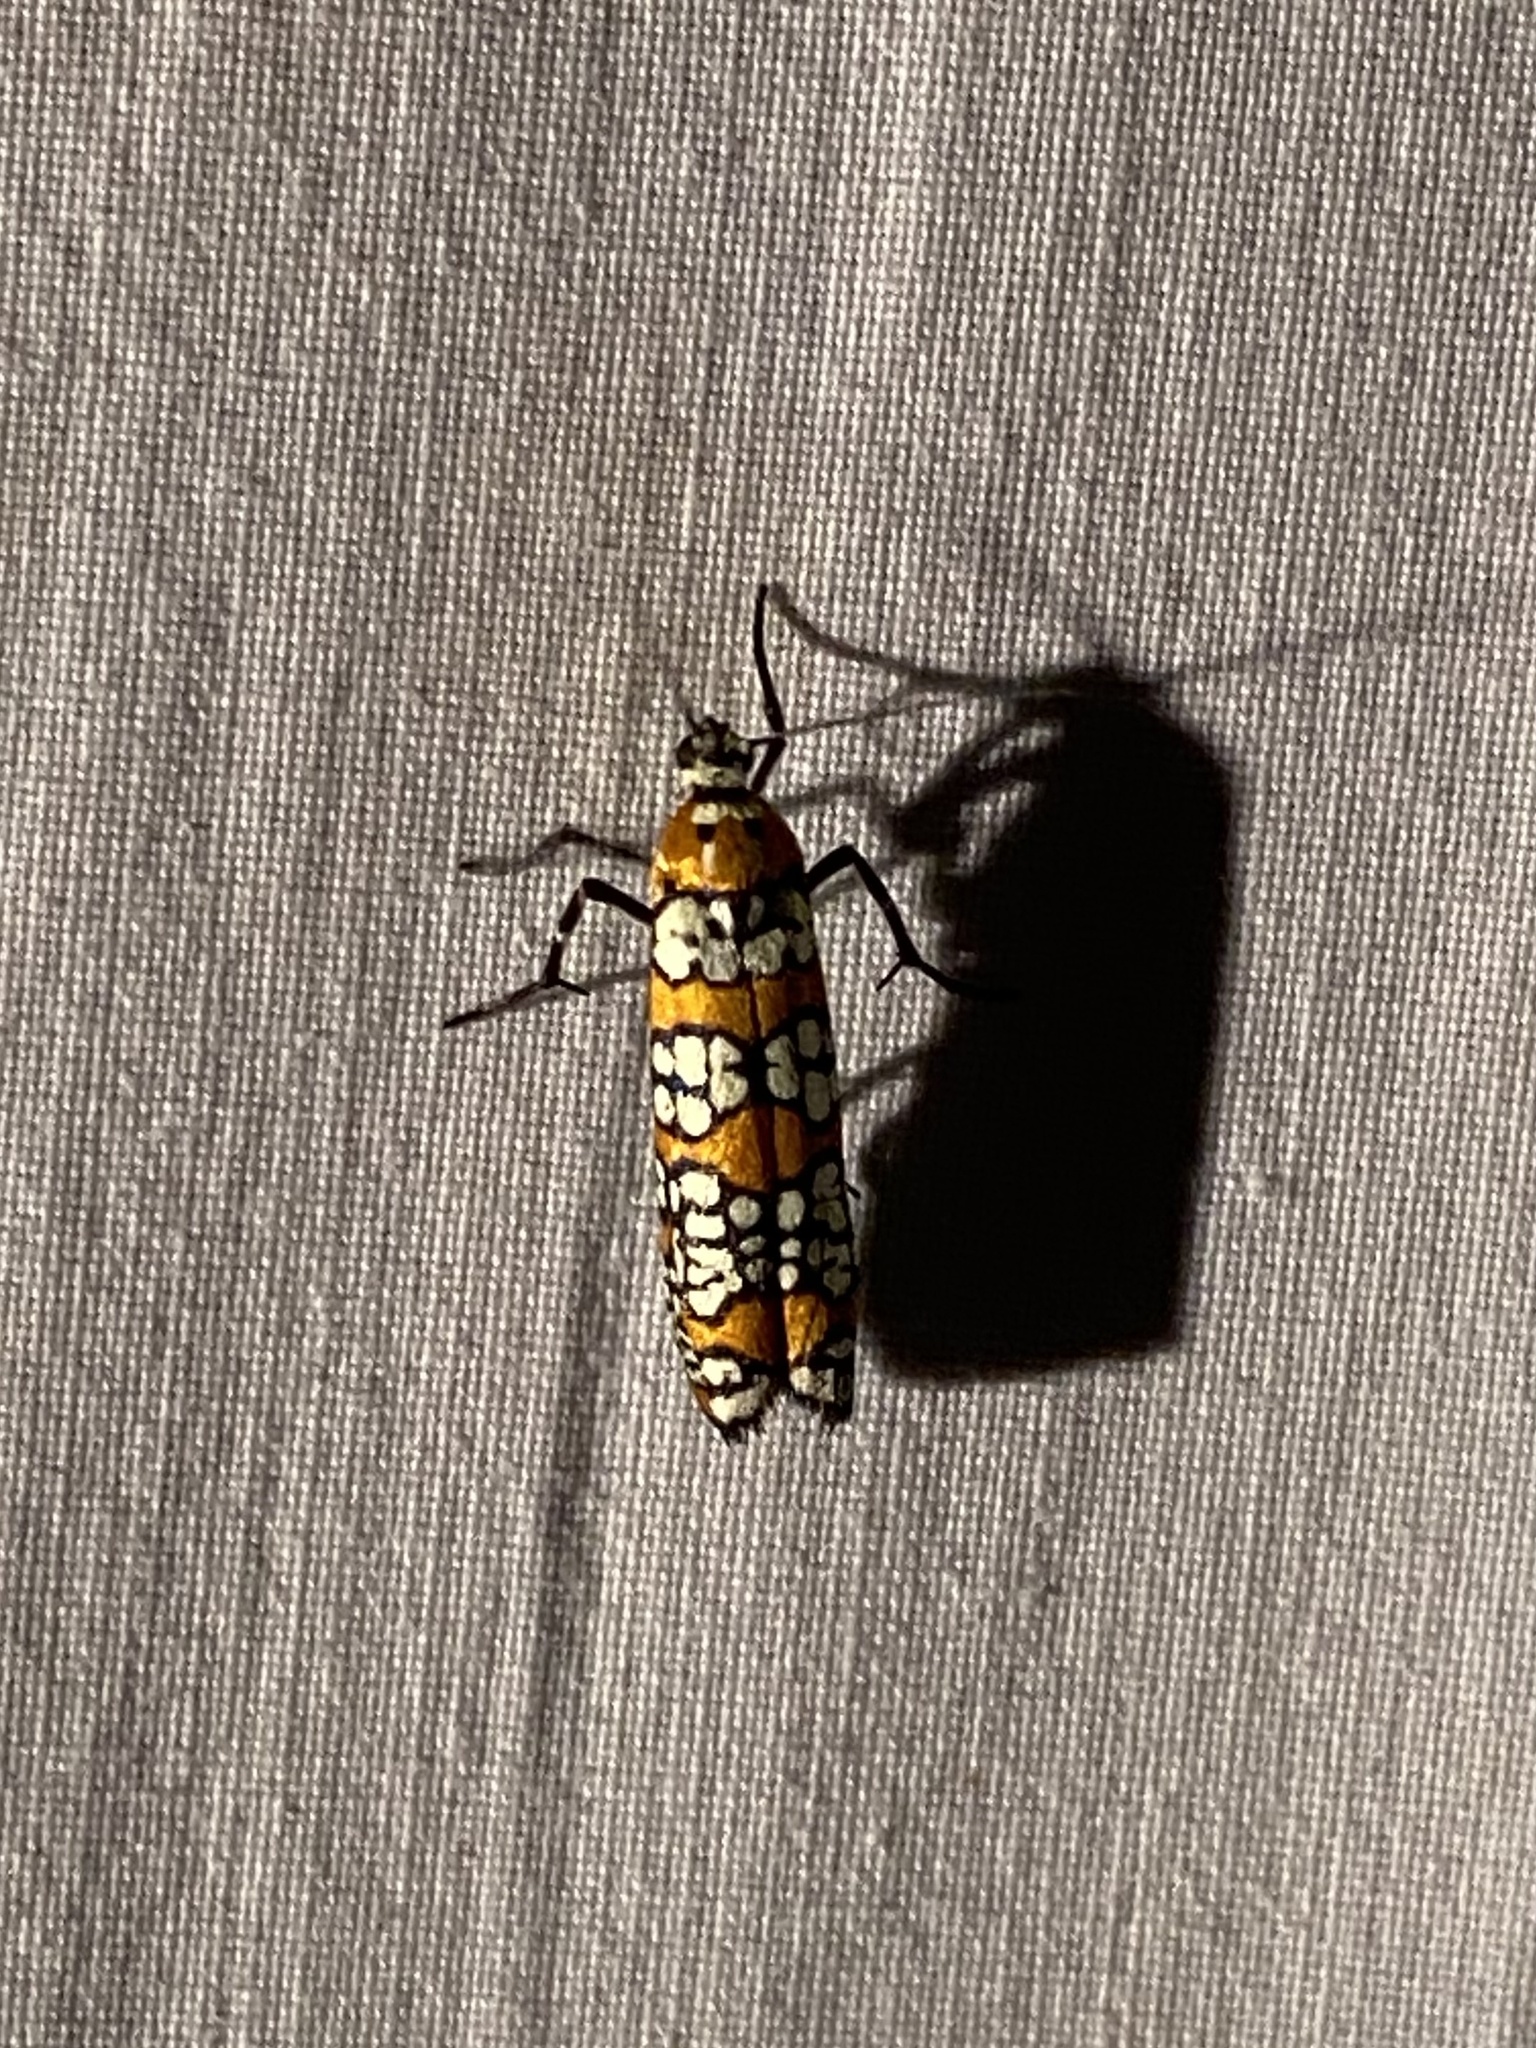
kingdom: Animalia
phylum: Arthropoda
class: Insecta
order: Lepidoptera
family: Attevidae
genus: Atteva
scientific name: Atteva punctella
